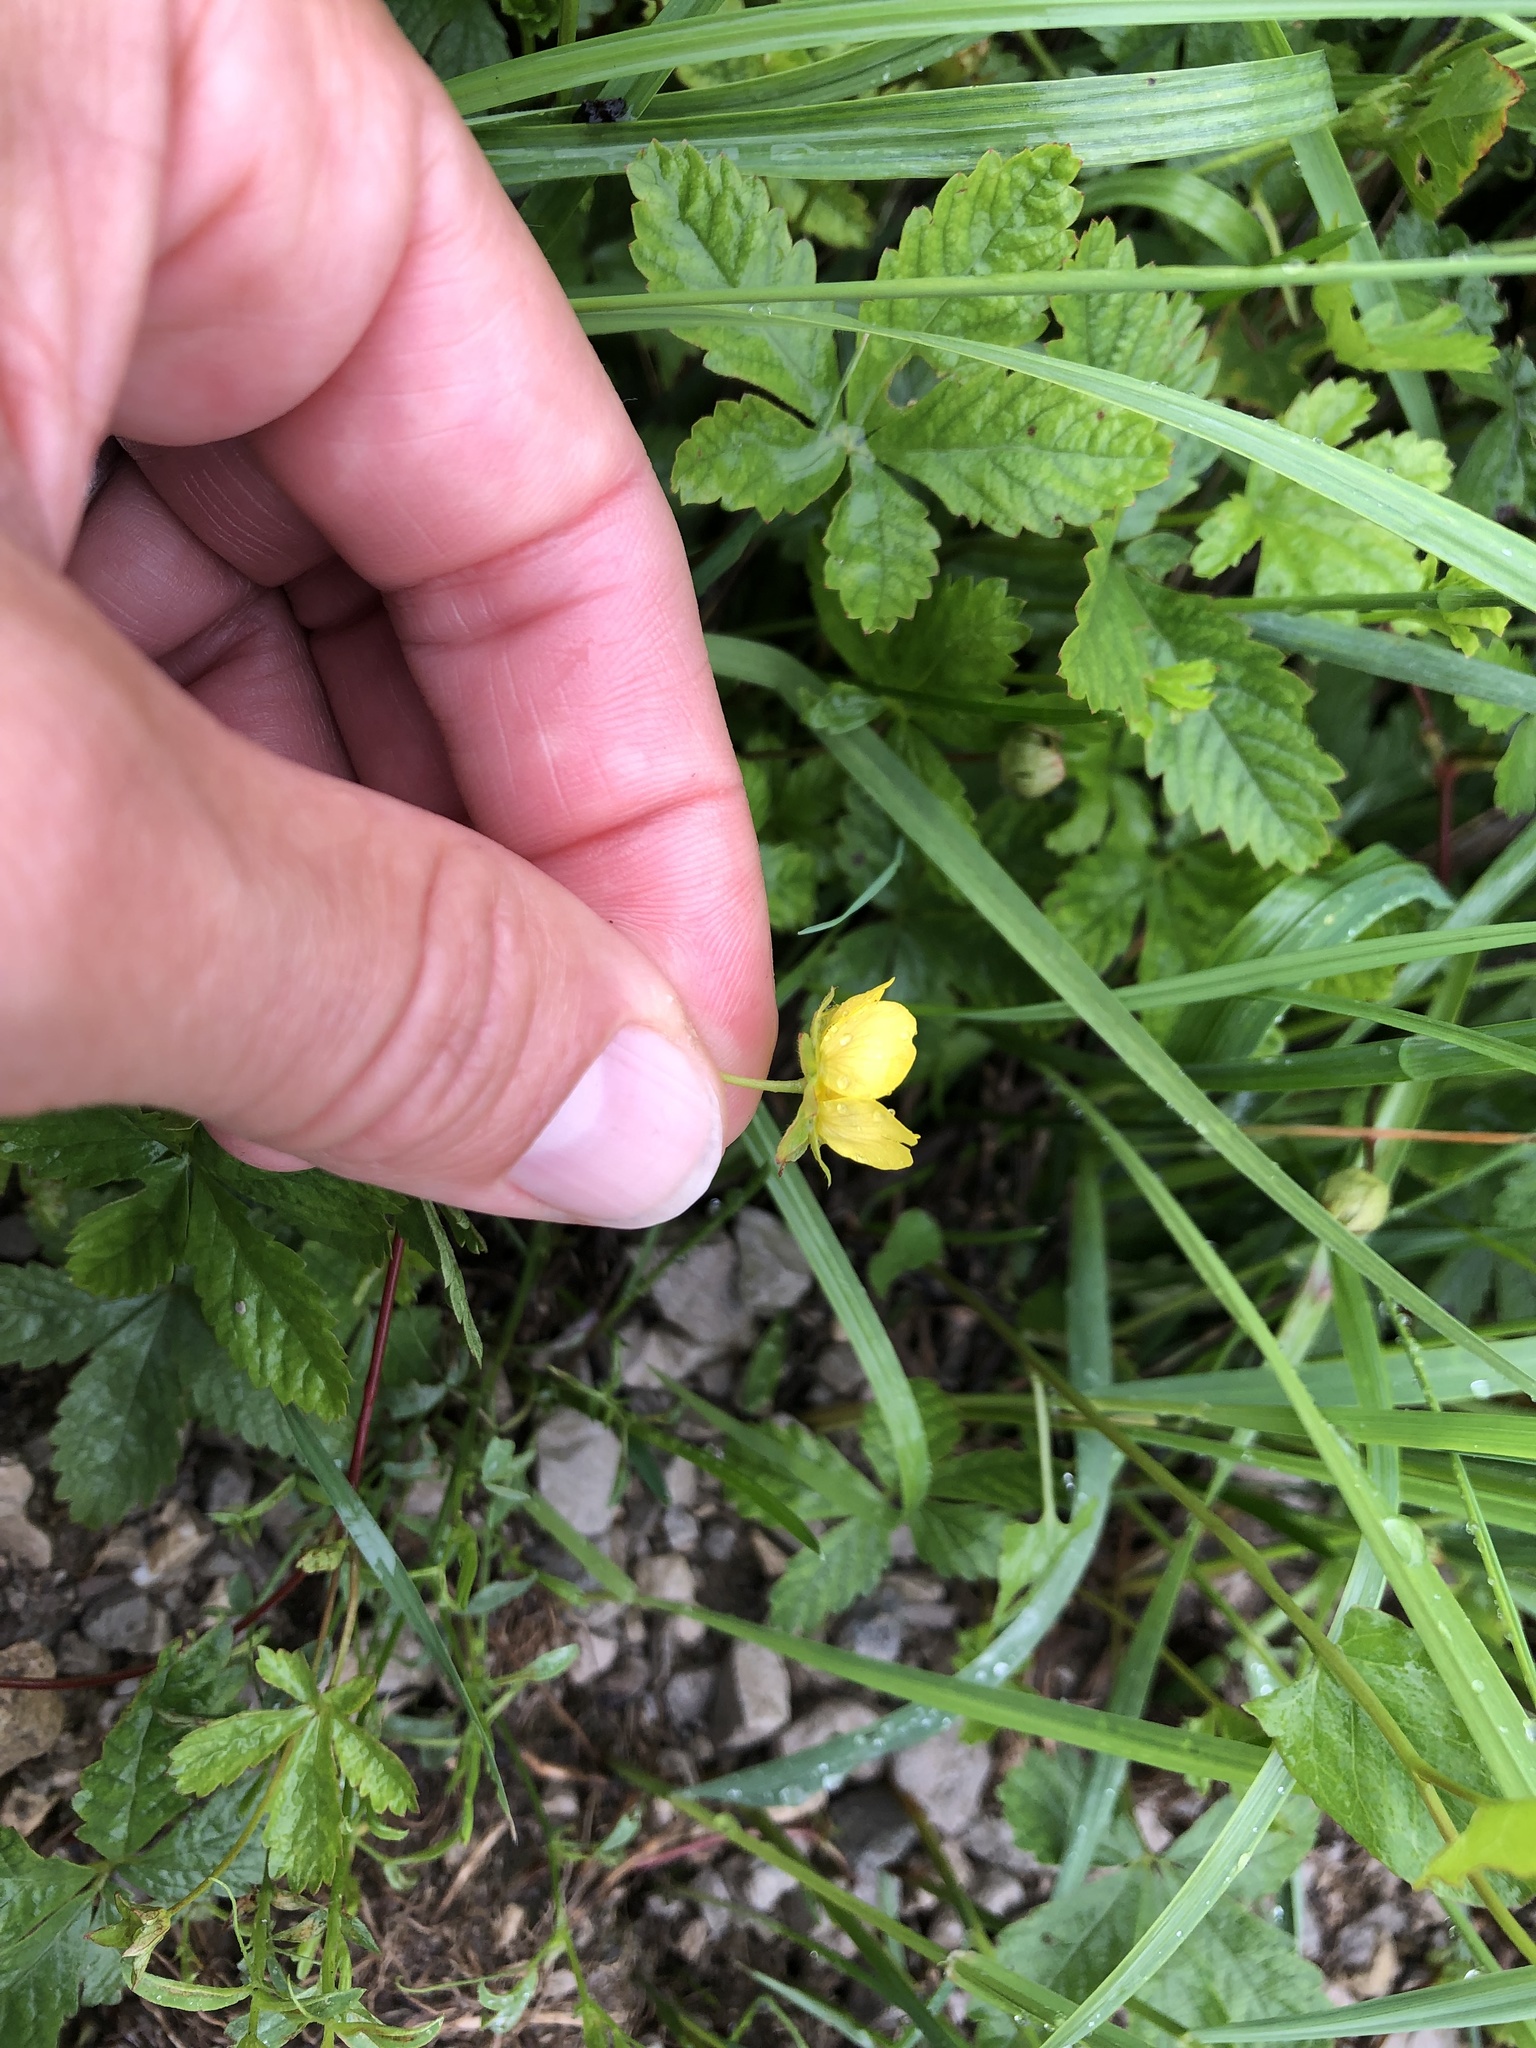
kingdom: Plantae
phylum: Tracheophyta
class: Magnoliopsida
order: Rosales
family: Rosaceae
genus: Potentilla
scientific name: Potentilla reptans
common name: Creeping cinquefoil
